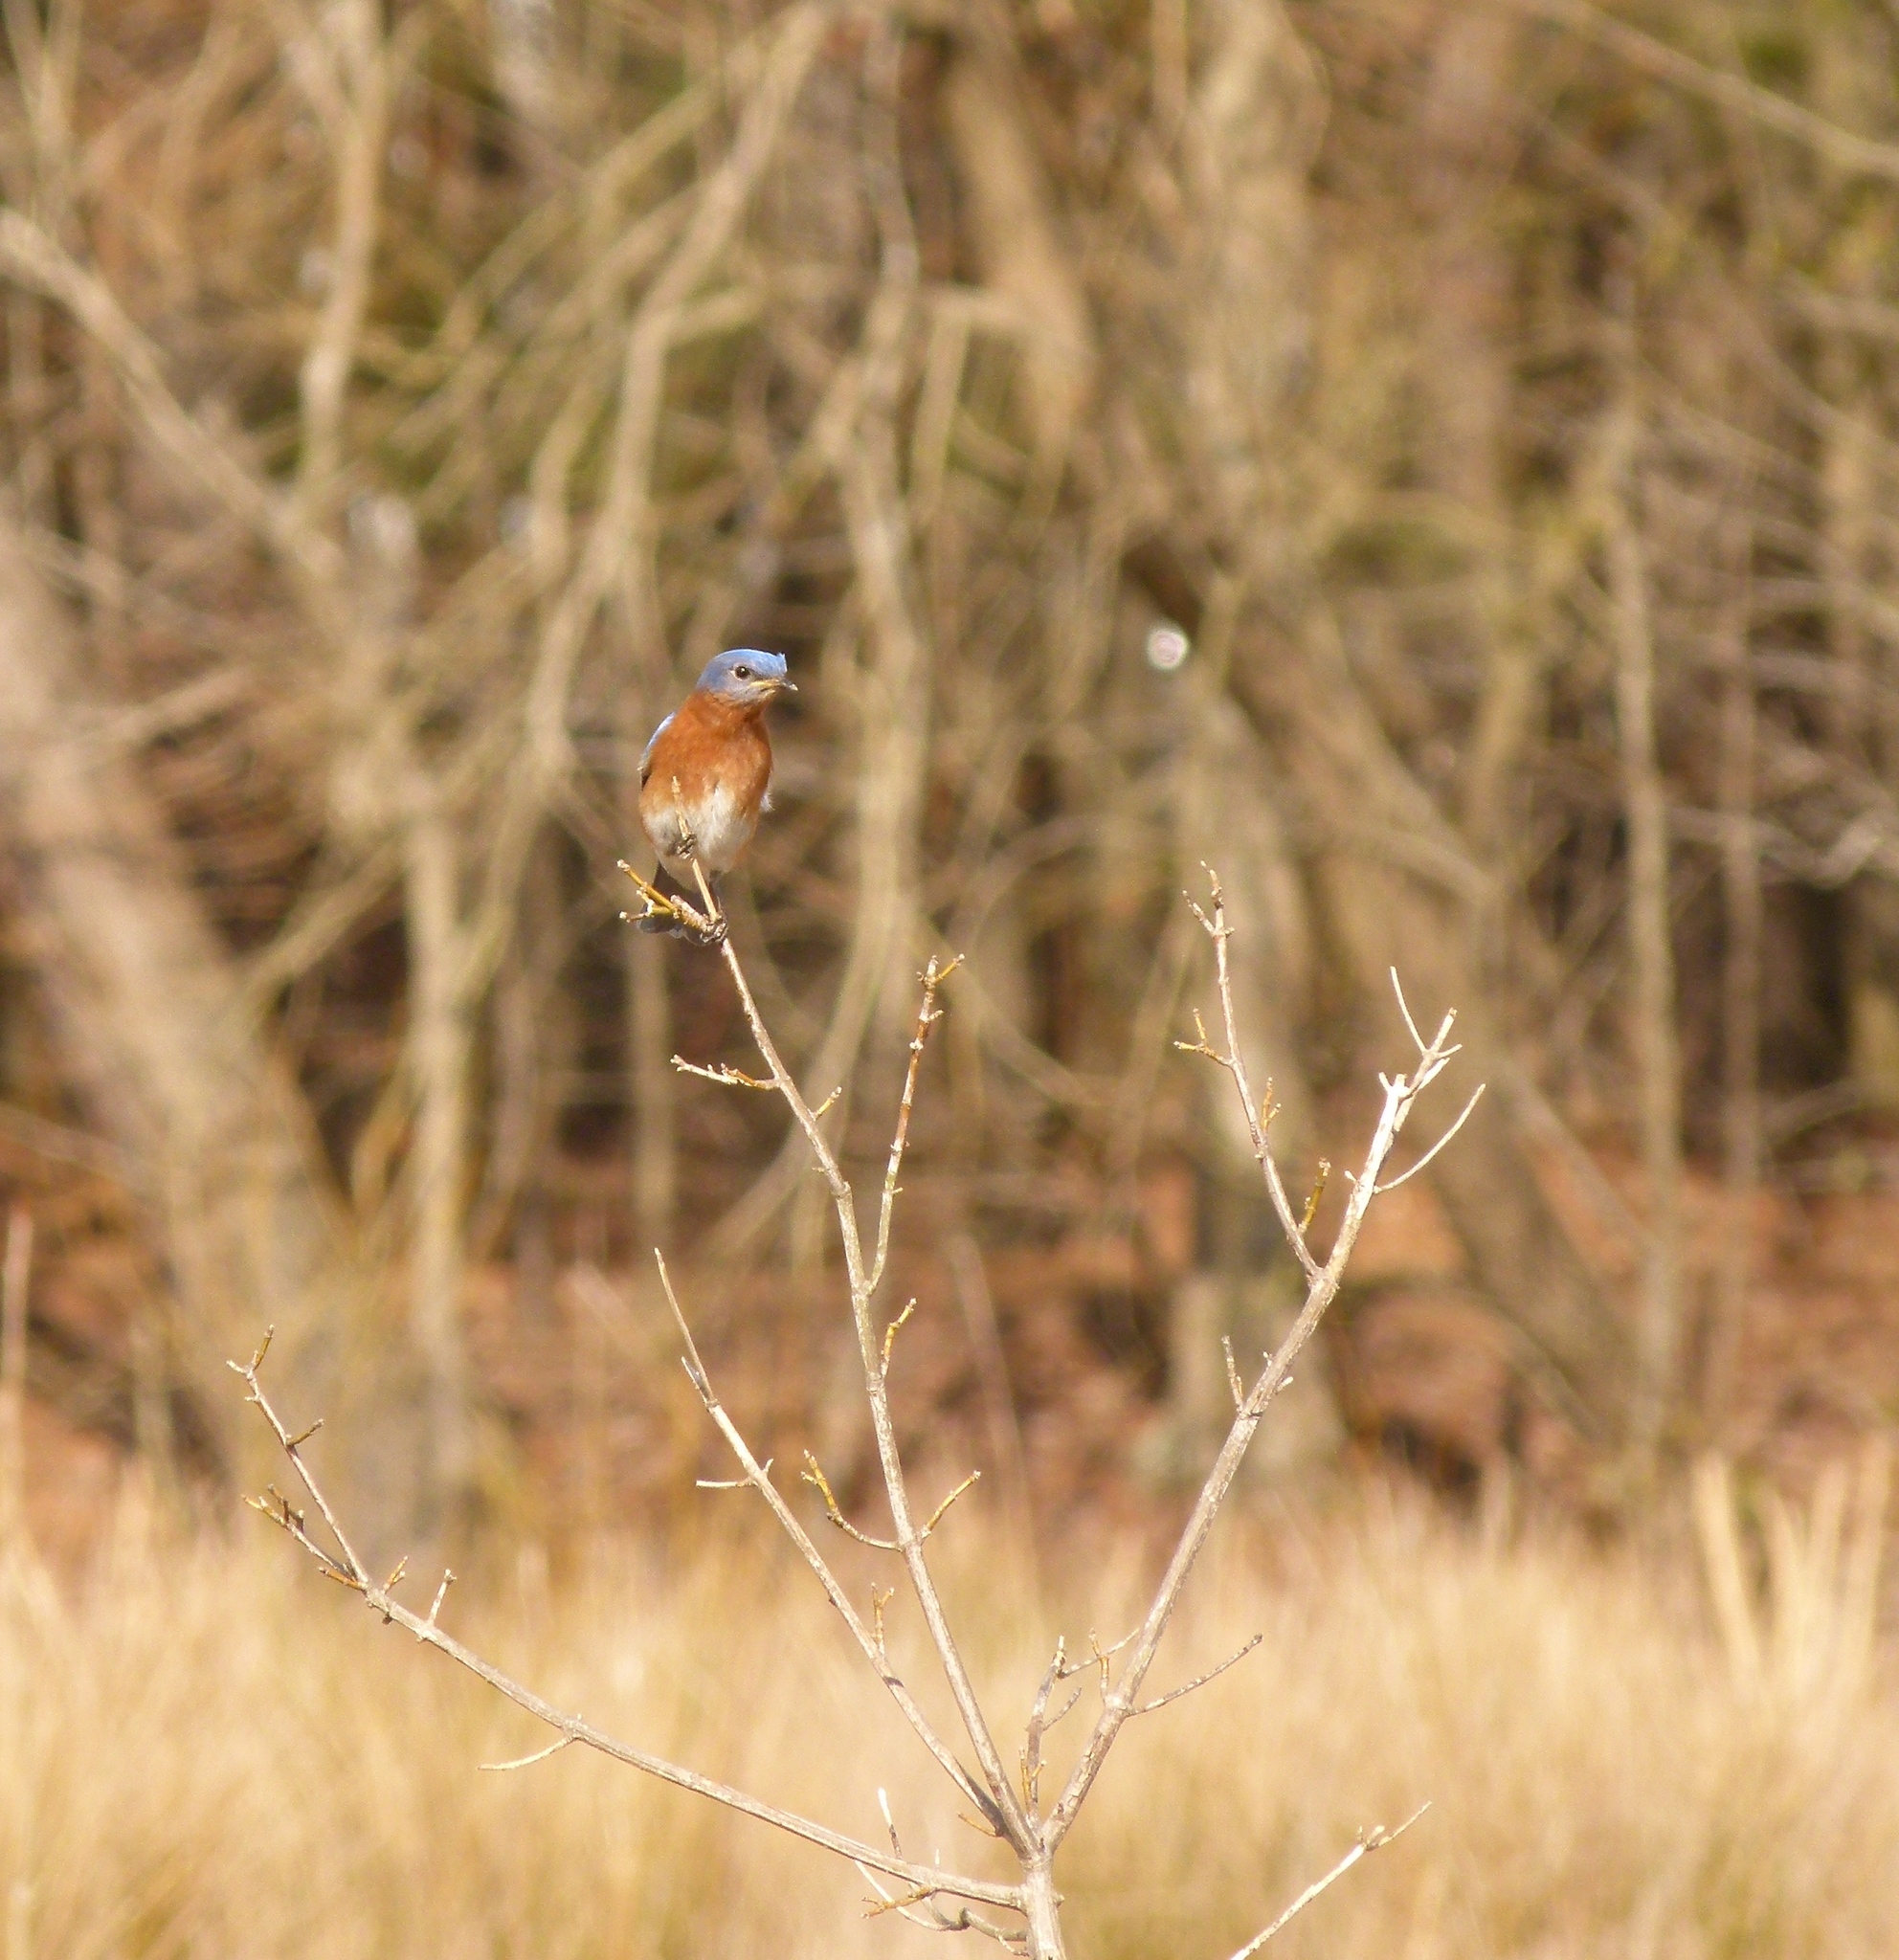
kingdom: Animalia
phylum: Chordata
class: Aves
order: Passeriformes
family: Turdidae
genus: Sialia
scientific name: Sialia sialis
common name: Eastern bluebird
